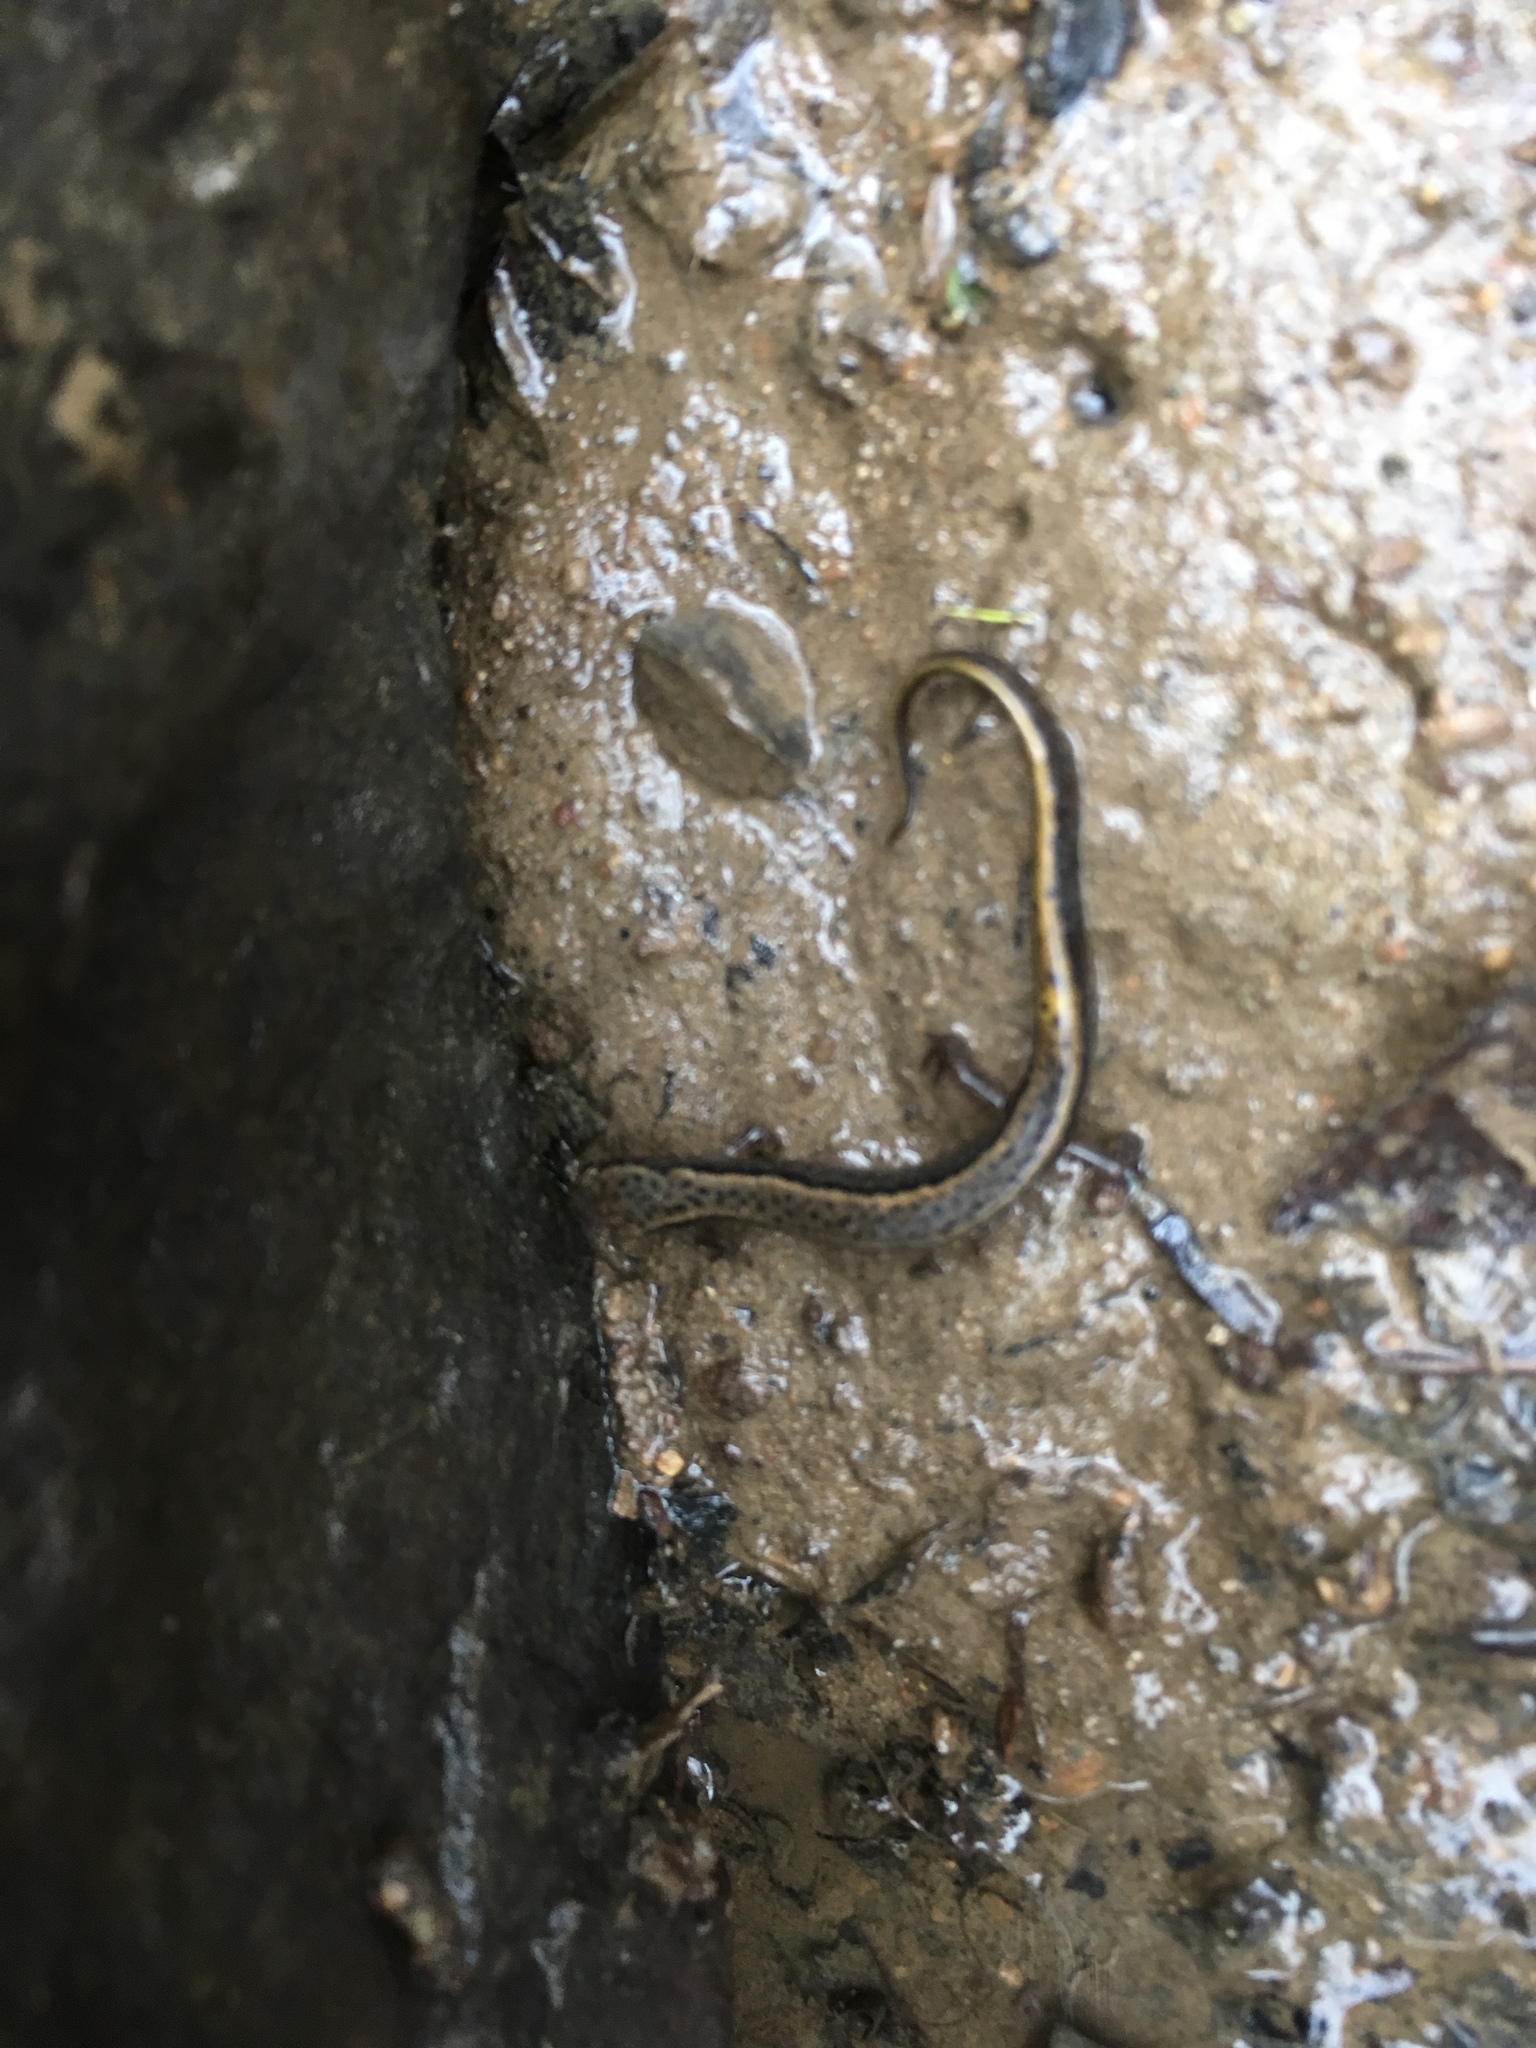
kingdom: Animalia
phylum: Chordata
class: Amphibia
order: Caudata
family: Plethodontidae
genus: Eurycea
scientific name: Eurycea bislineata
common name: Northern two-lined salamander
